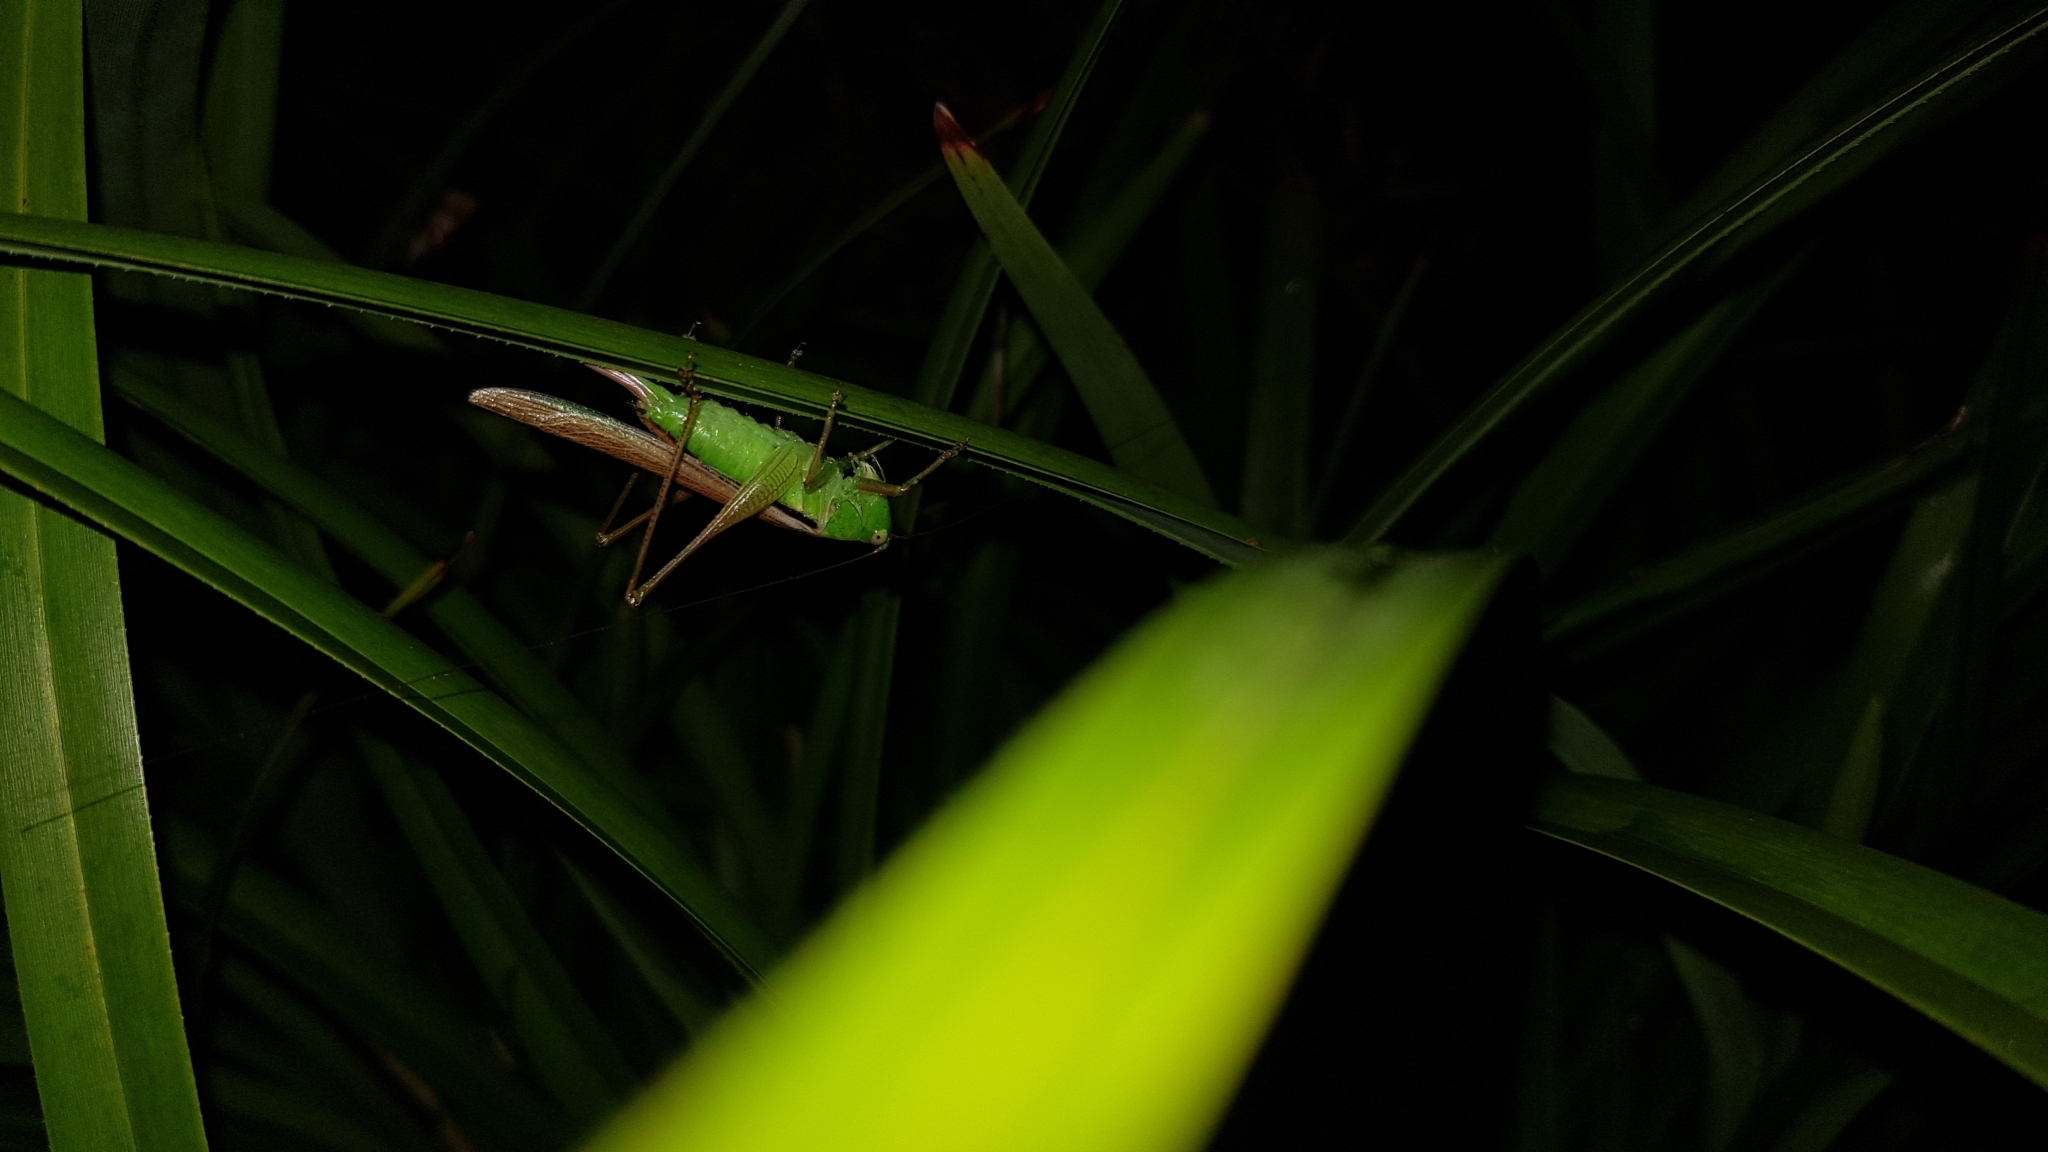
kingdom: Animalia
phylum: Arthropoda
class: Insecta
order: Orthoptera
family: Tettigoniidae
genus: Conocephalus
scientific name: Conocephalus semivittatus
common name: Blackish meadow katydid
